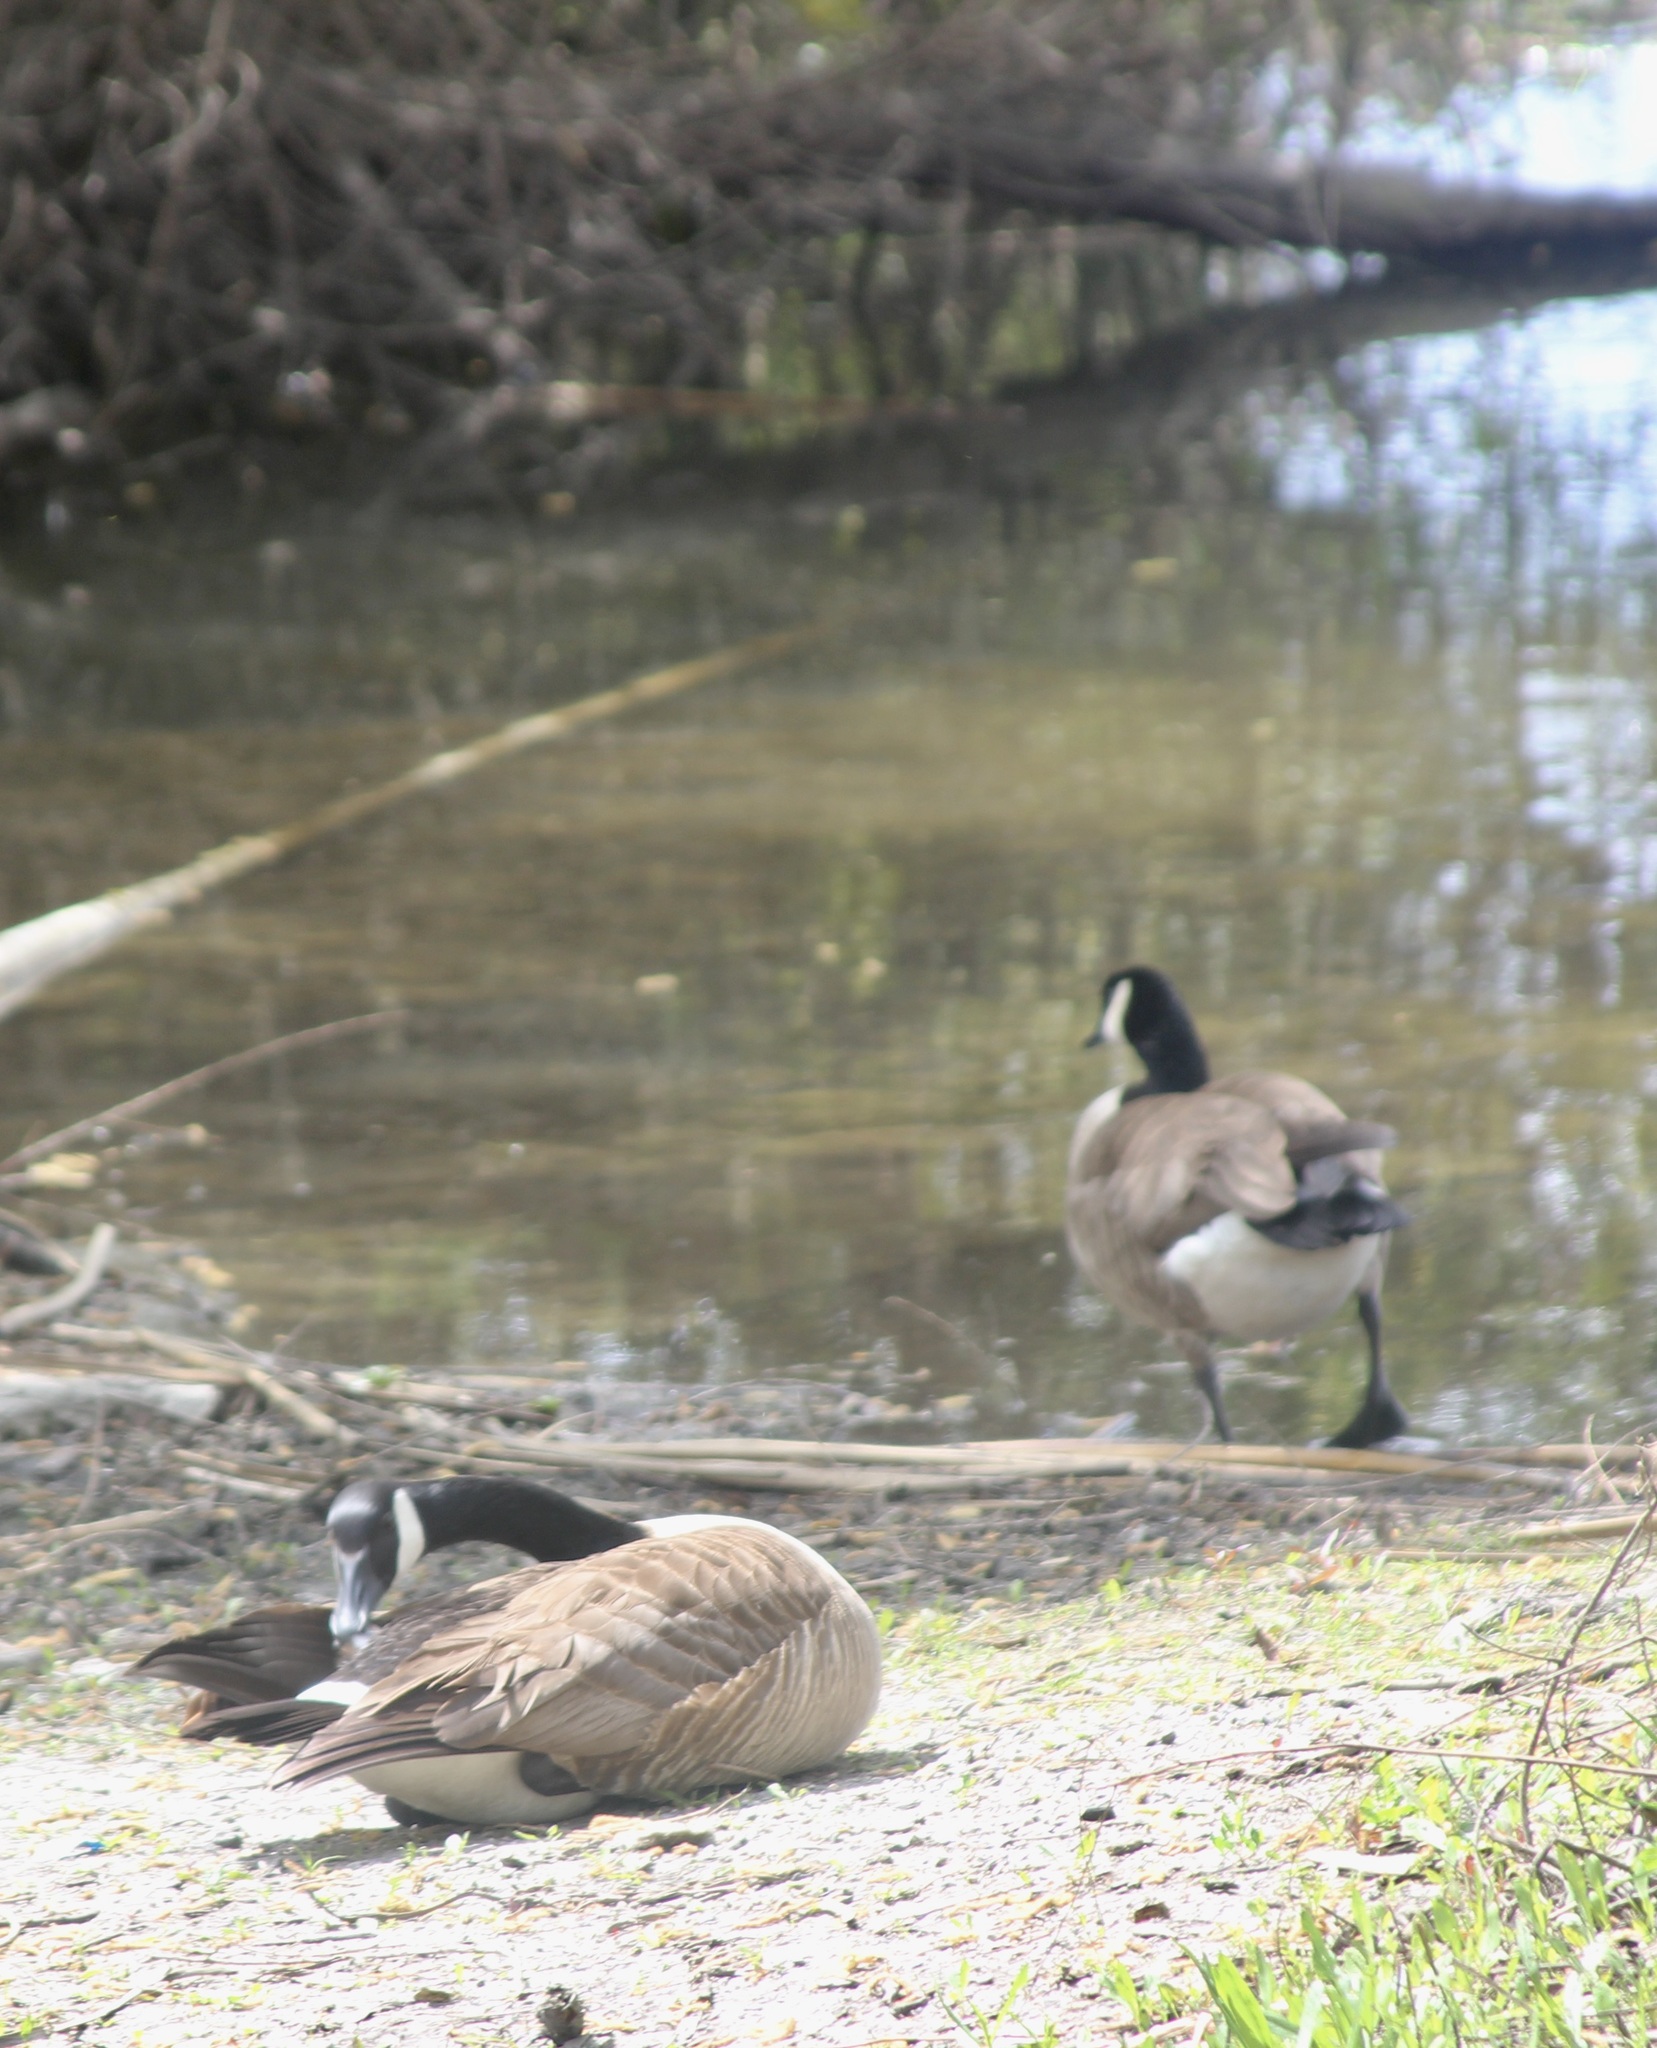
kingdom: Animalia
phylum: Chordata
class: Aves
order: Anseriformes
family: Anatidae
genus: Branta
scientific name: Branta canadensis
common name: Canada goose
